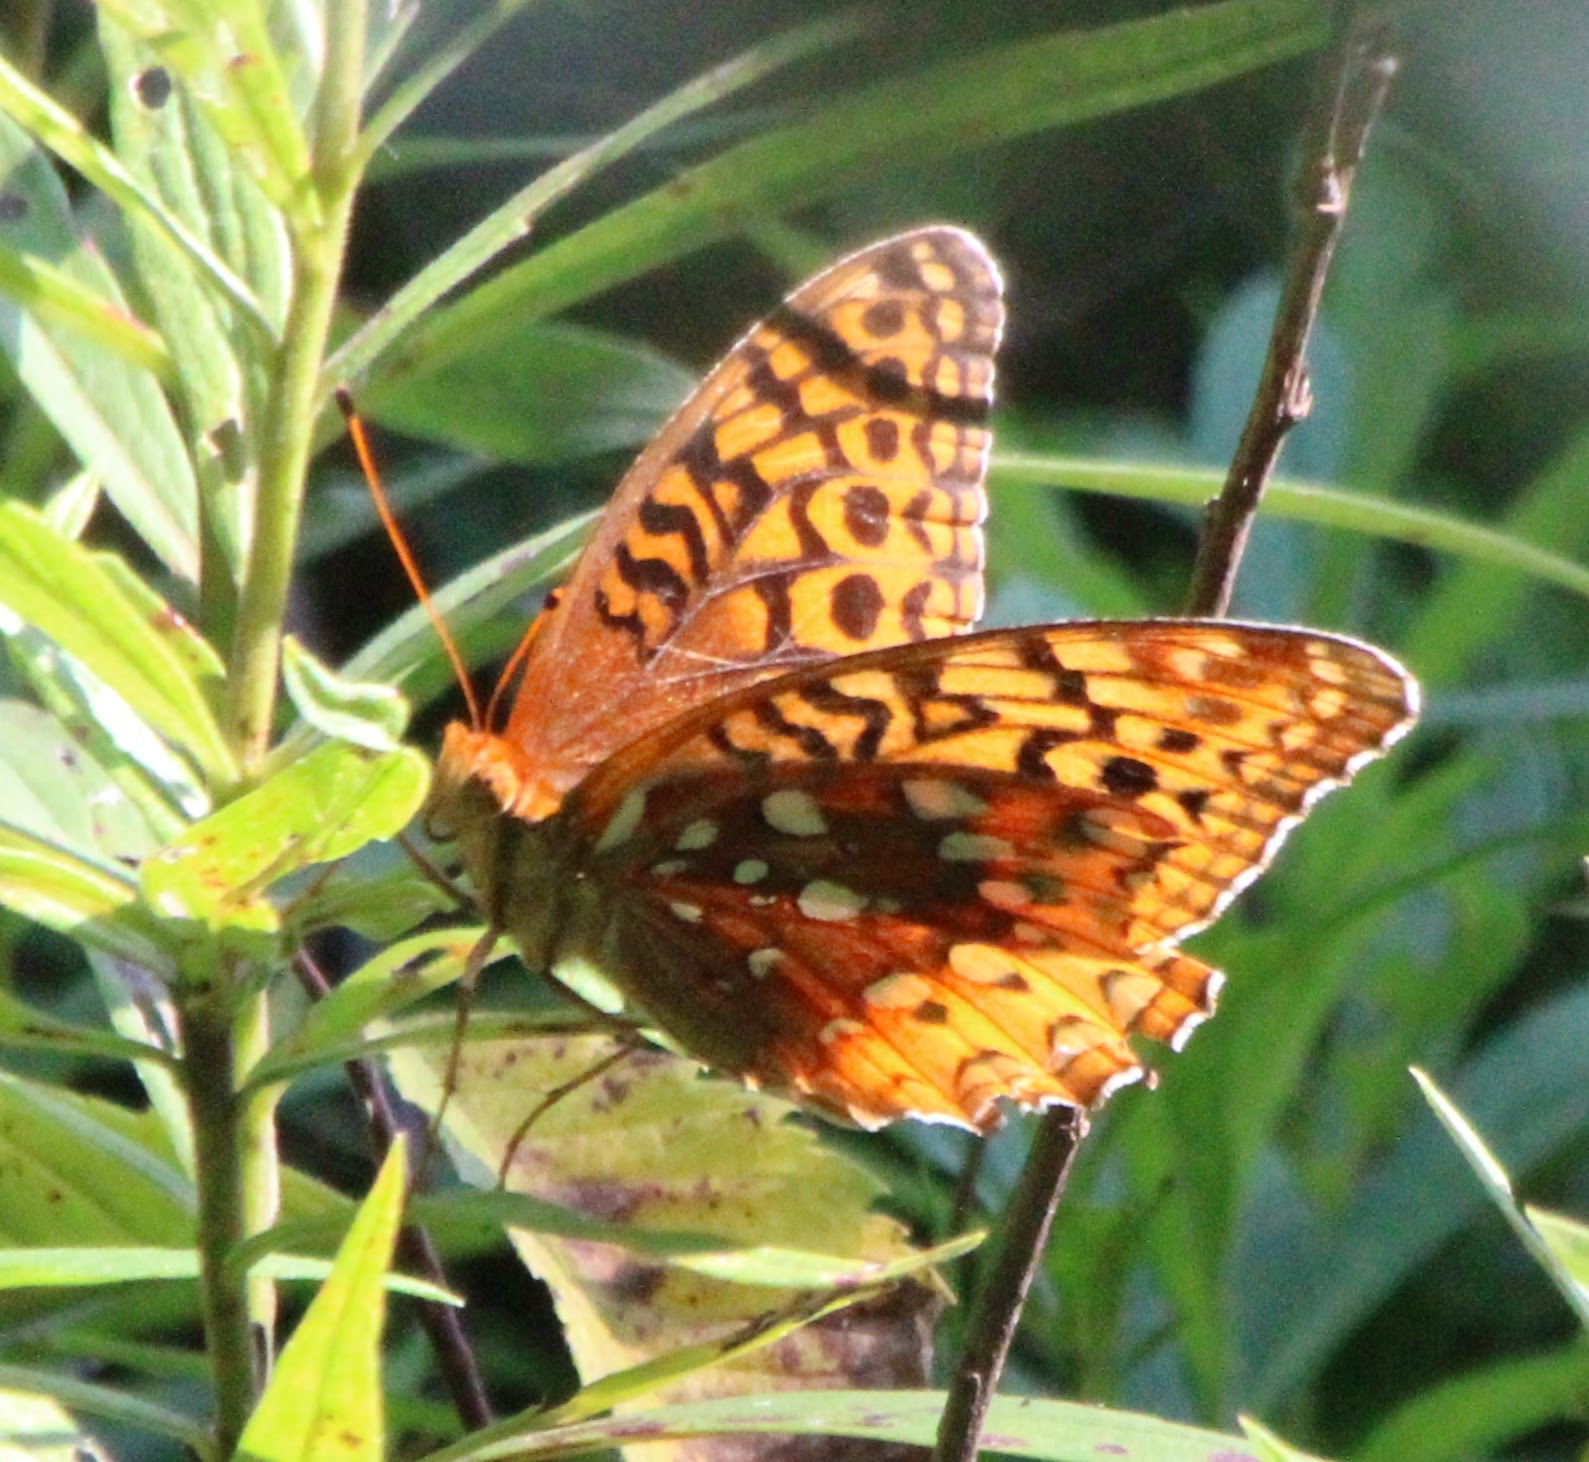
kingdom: Animalia
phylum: Arthropoda
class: Insecta
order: Lepidoptera
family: Nymphalidae
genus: Speyeria
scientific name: Speyeria cybele
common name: Great spangled fritillary
